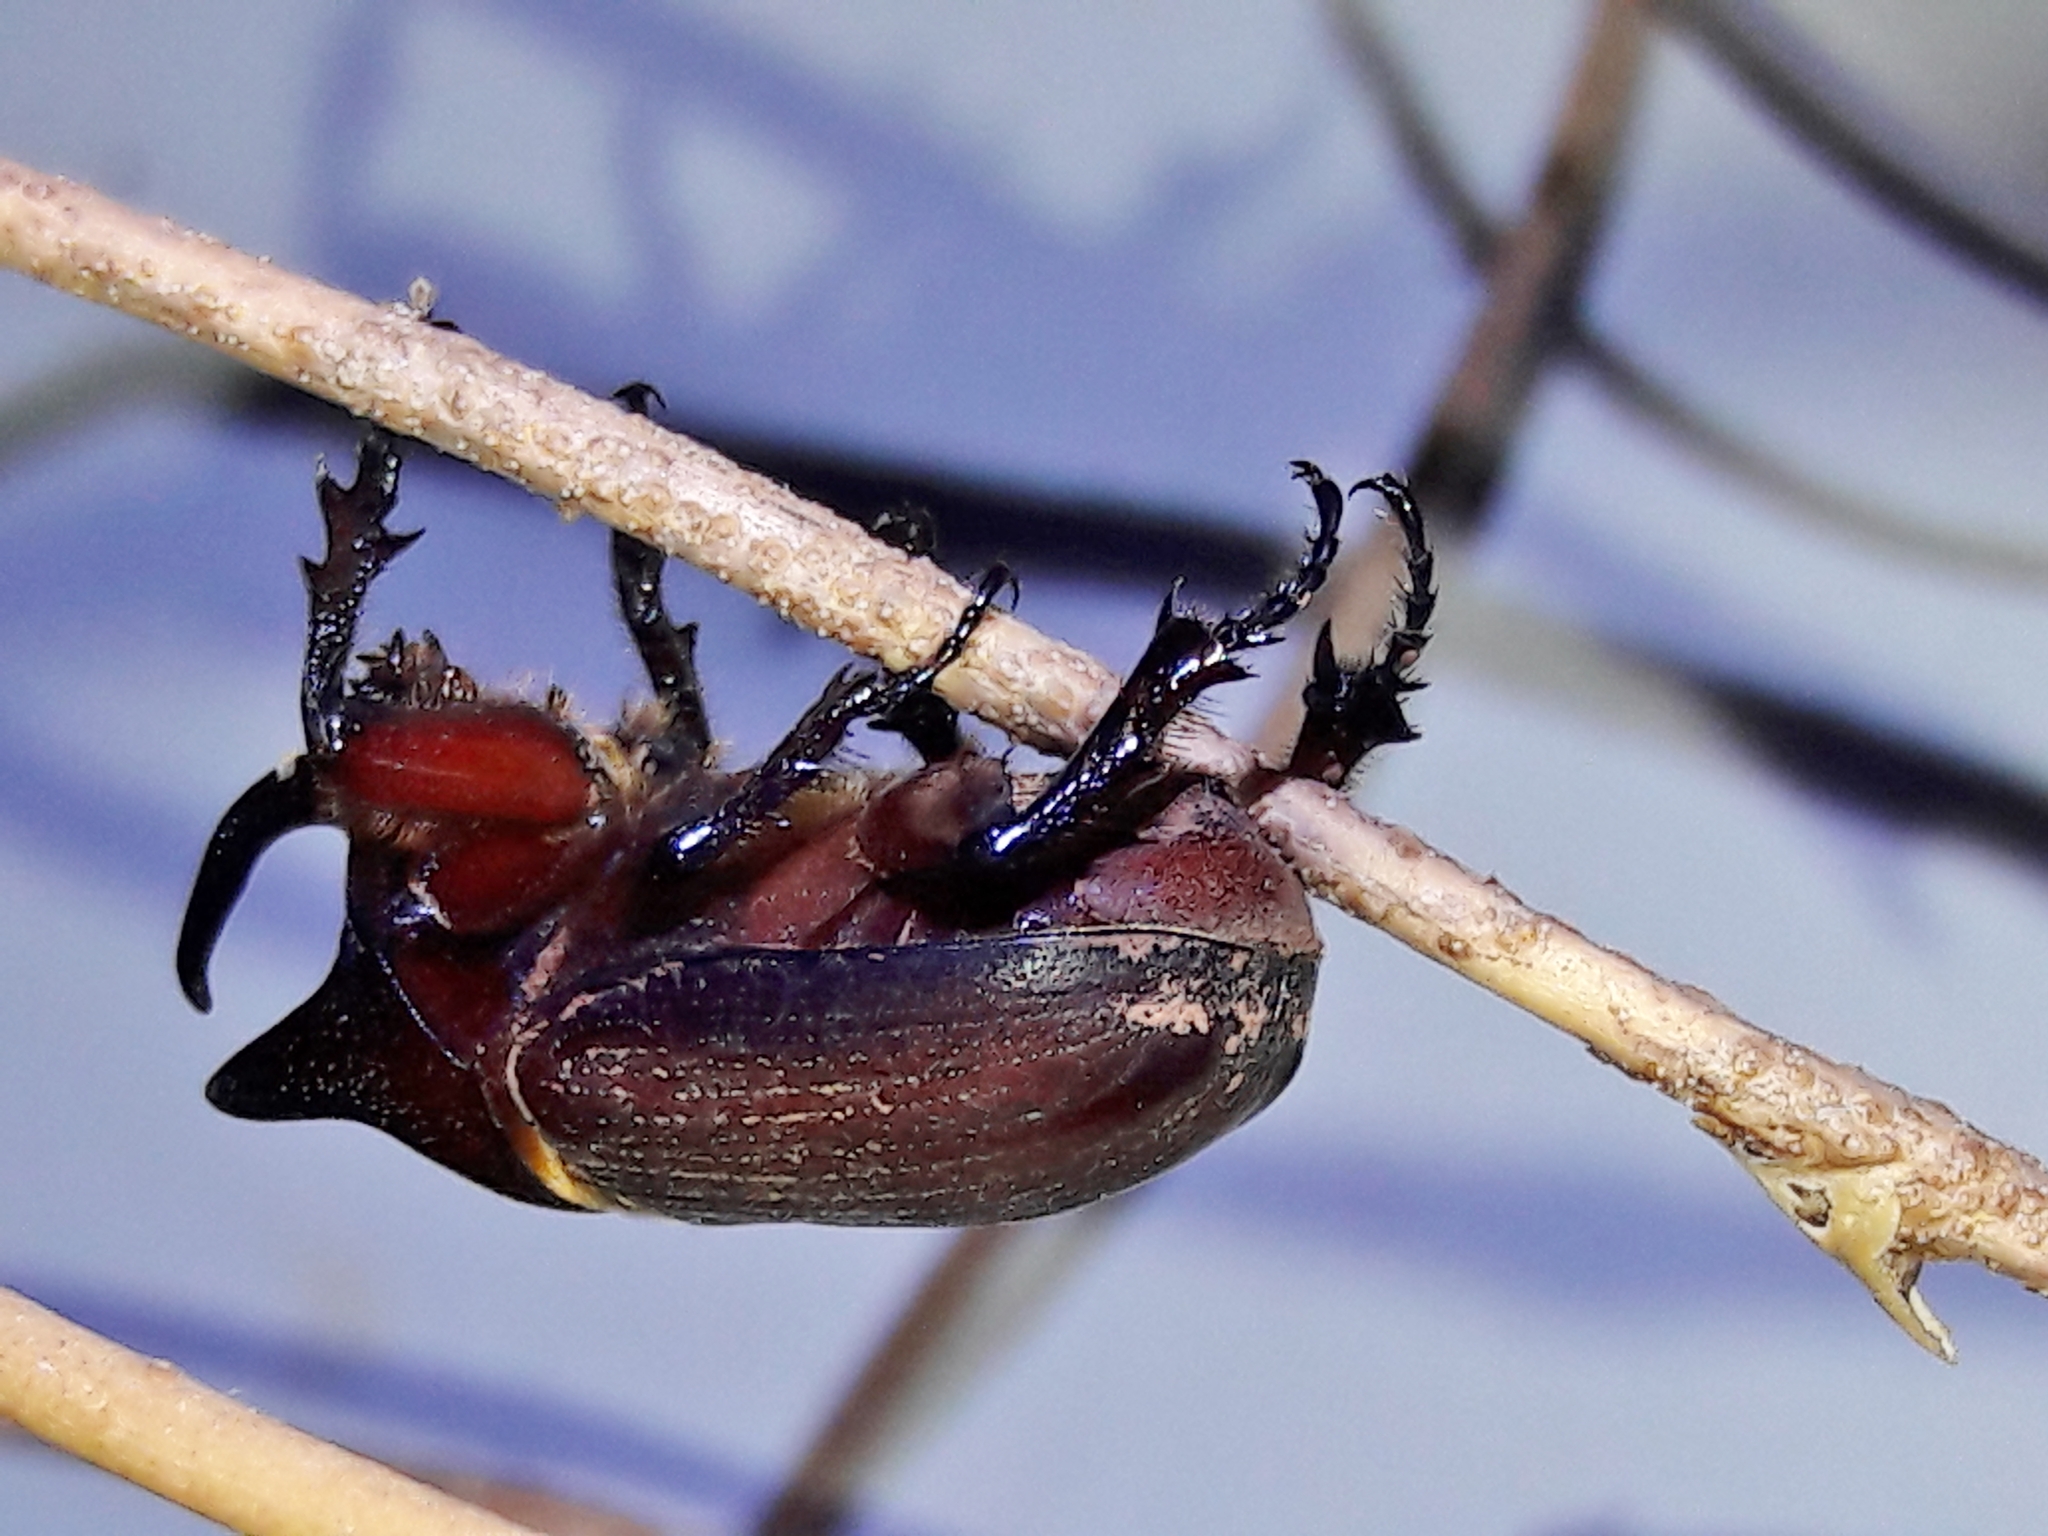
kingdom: Animalia
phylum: Arthropoda
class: Insecta
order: Coleoptera
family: Scarabaeidae
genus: Coelosis
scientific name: Coelosis bicornis
